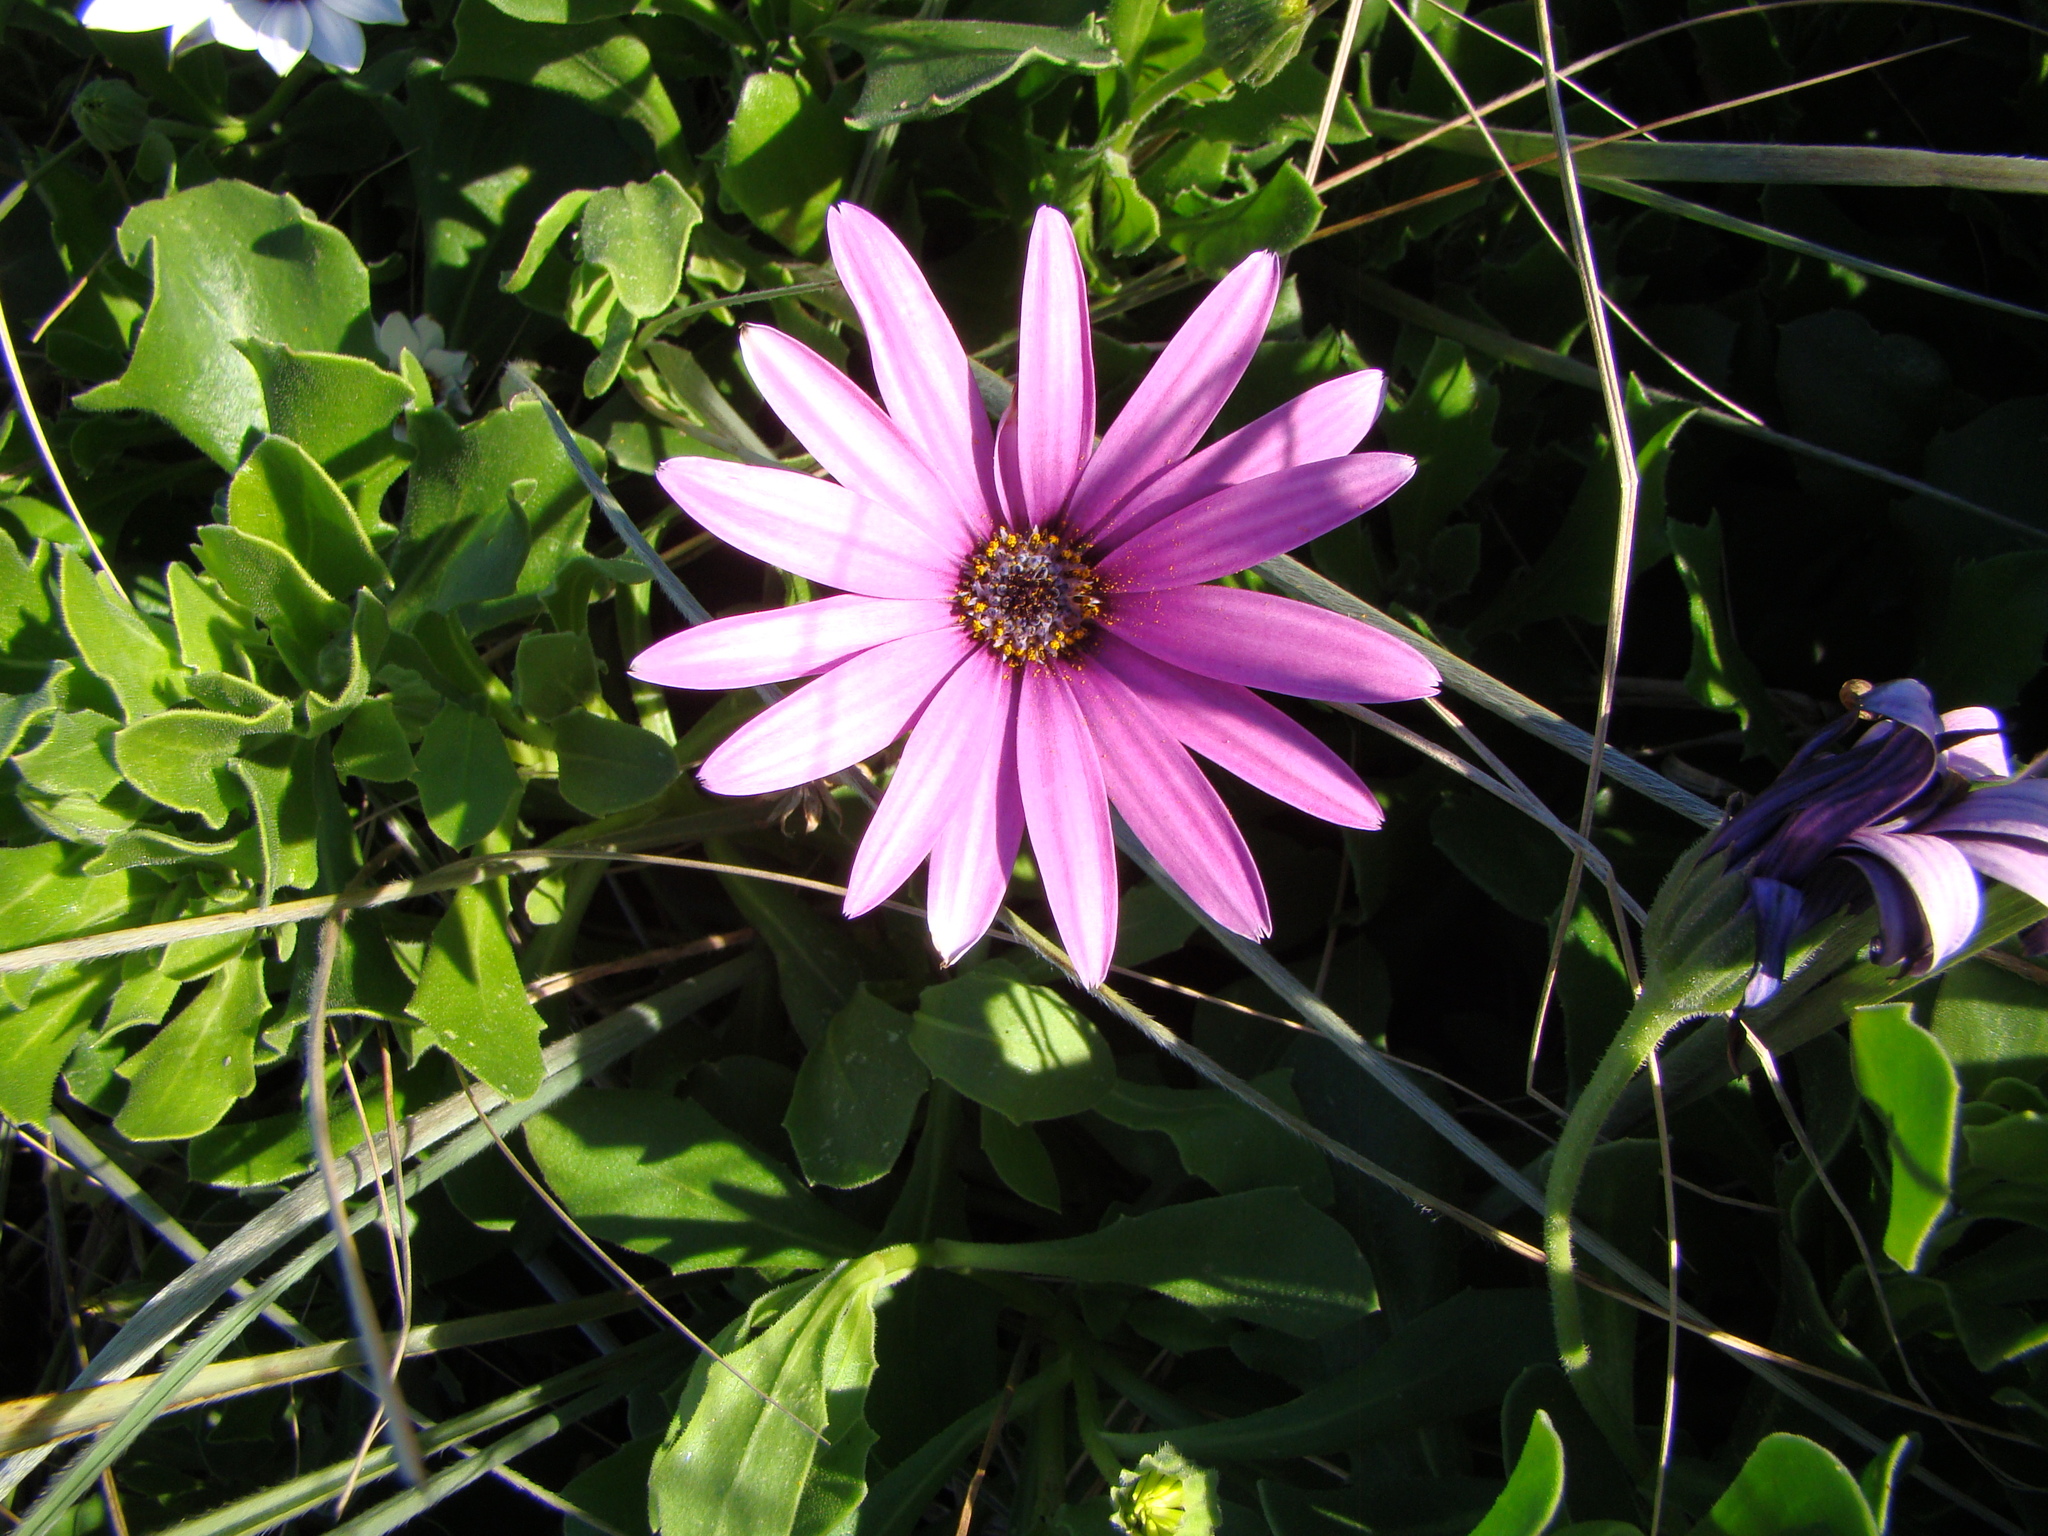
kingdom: Plantae
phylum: Tracheophyta
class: Magnoliopsida
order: Asterales
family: Asteraceae
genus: Dimorphotheca
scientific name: Dimorphotheca jucunda
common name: Osteospermum
